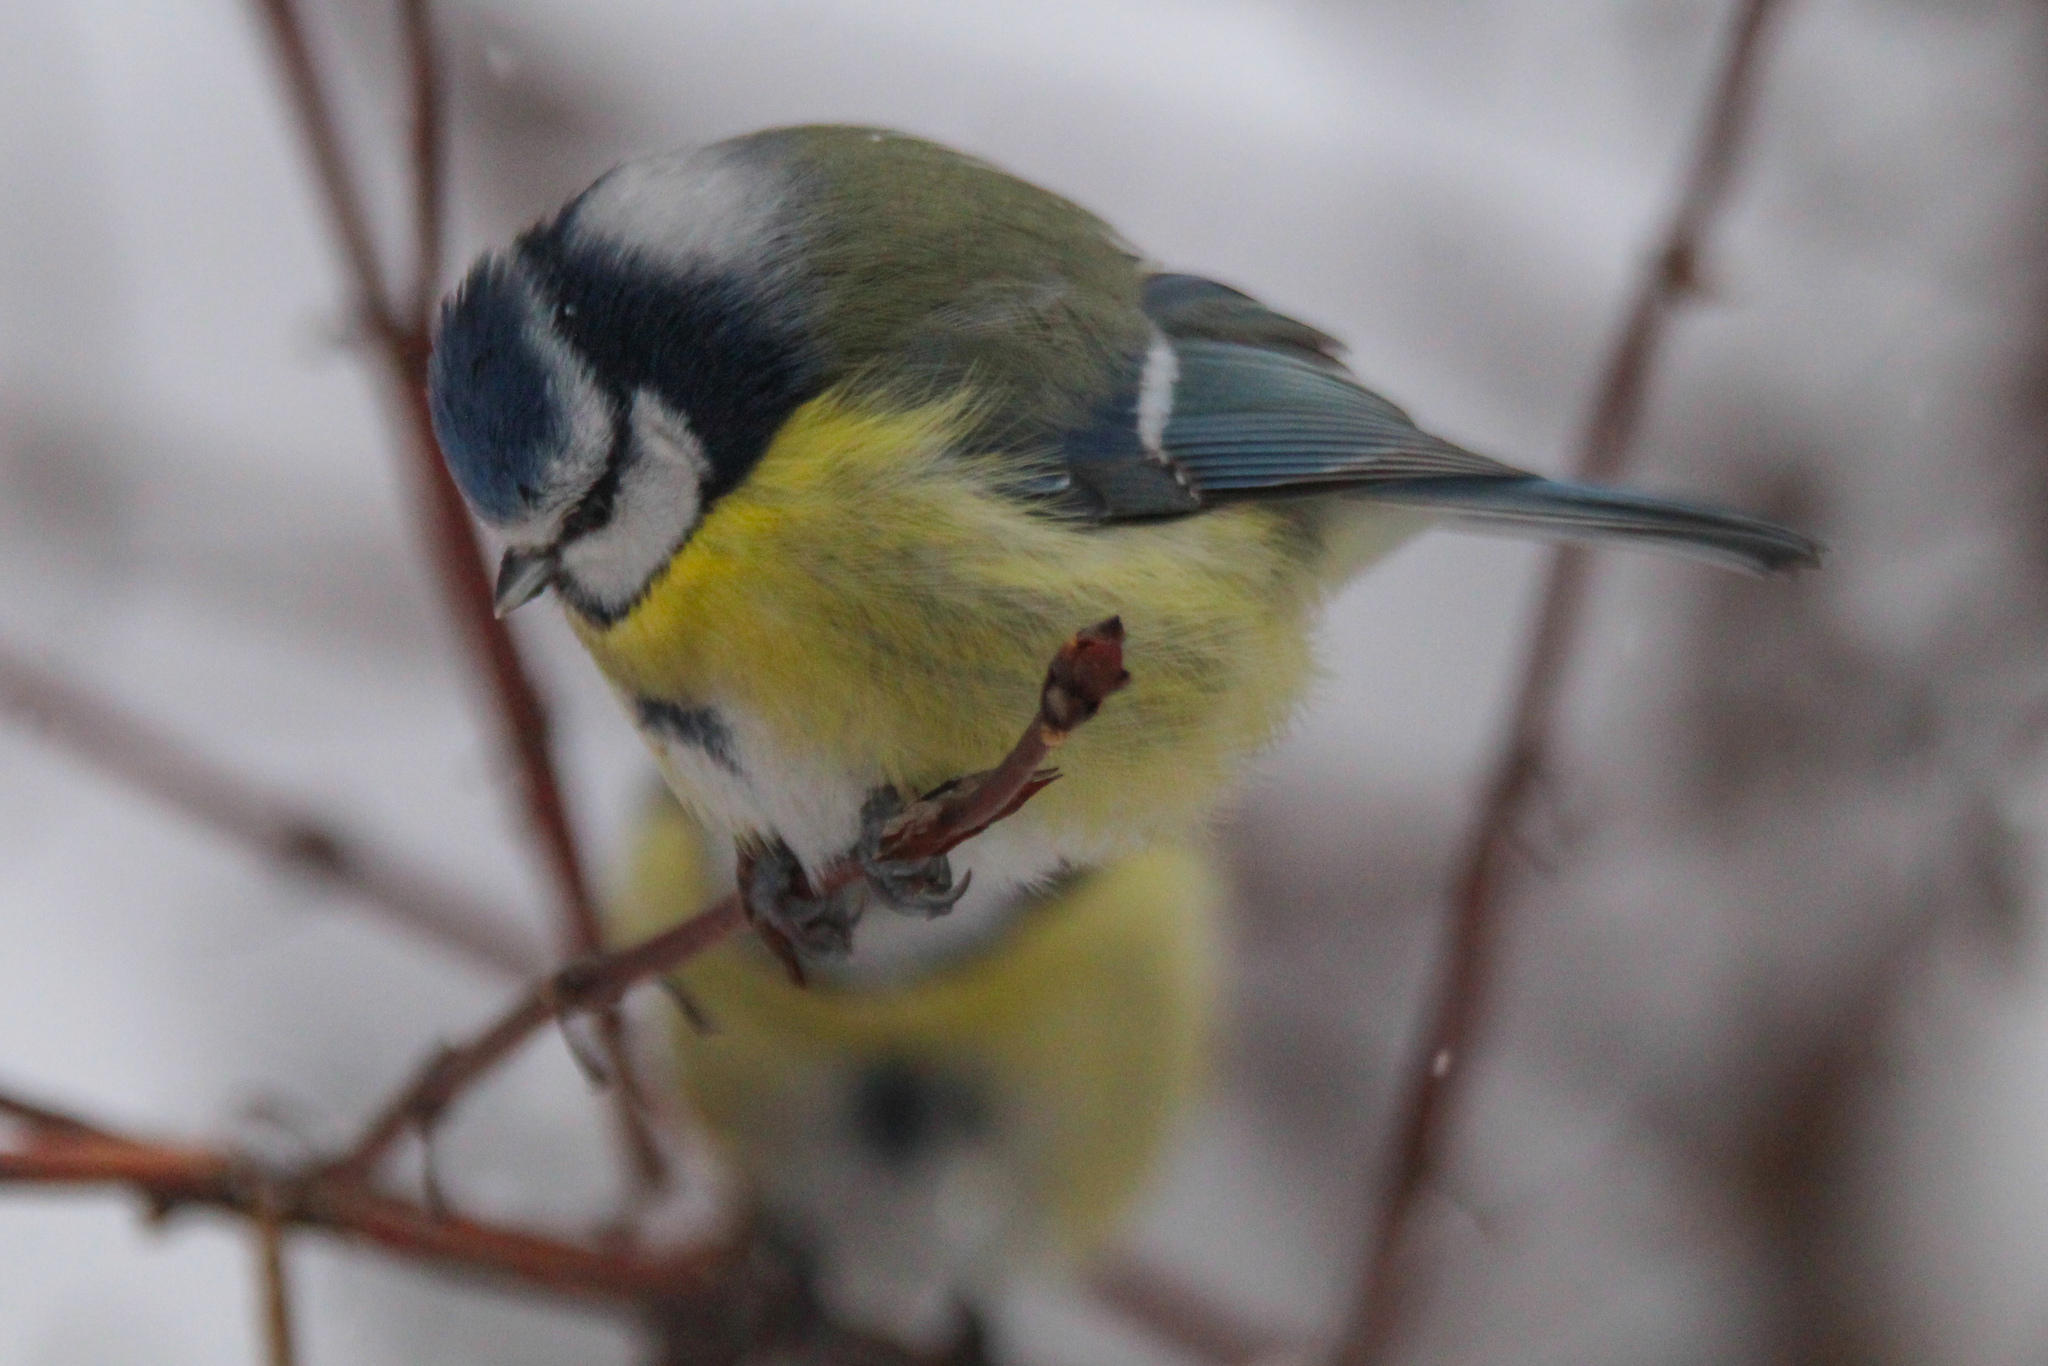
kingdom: Animalia
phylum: Chordata
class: Aves
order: Passeriformes
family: Paridae
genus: Cyanistes
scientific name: Cyanistes caeruleus
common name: Eurasian blue tit
